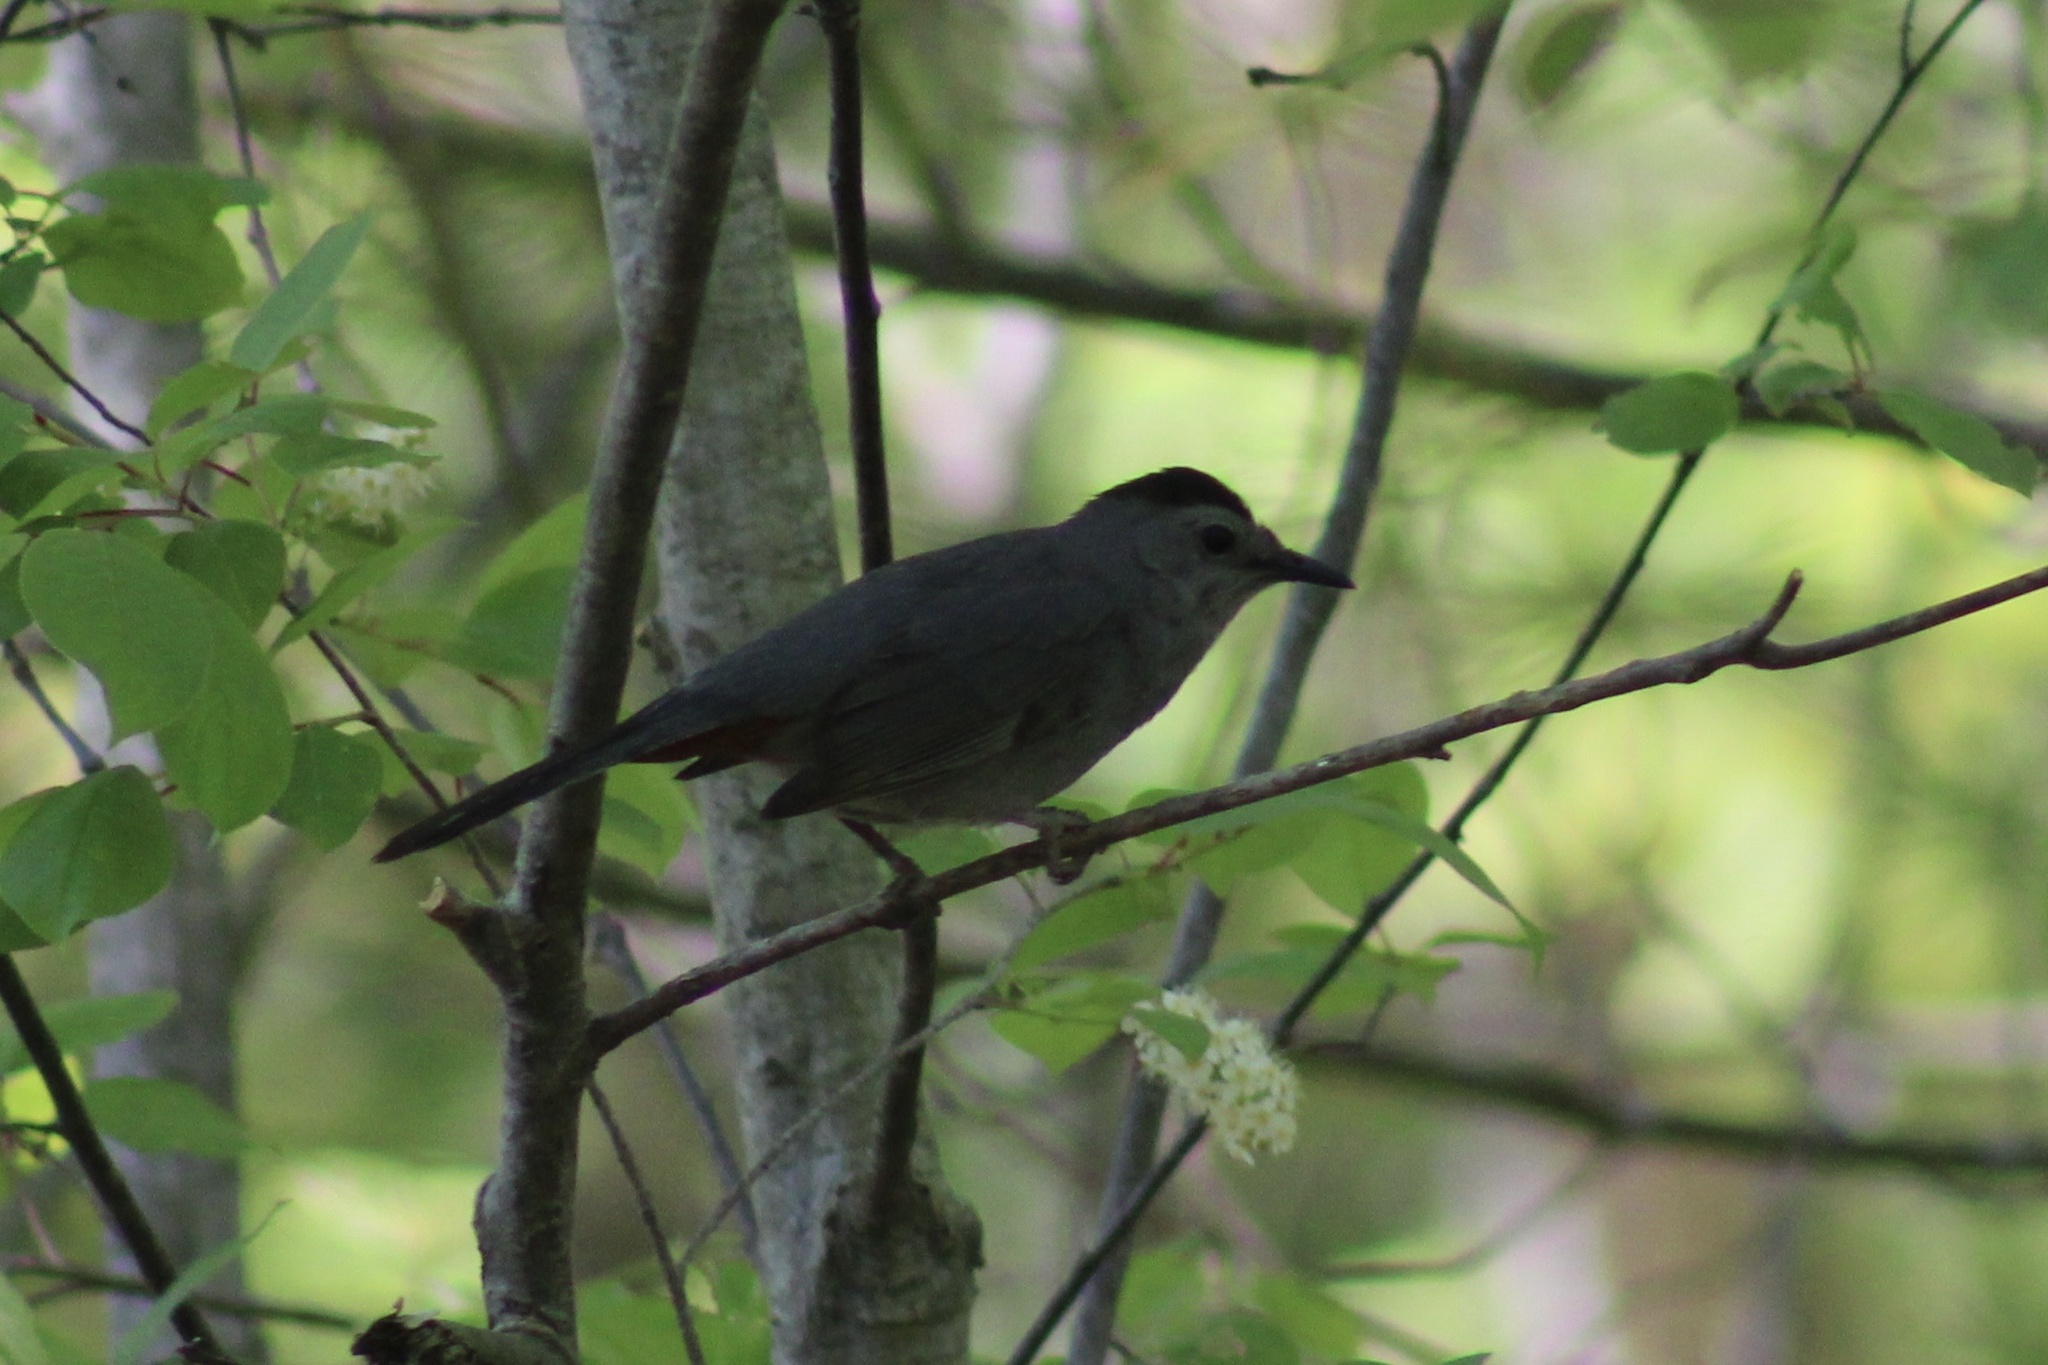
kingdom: Animalia
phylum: Chordata
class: Aves
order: Passeriformes
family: Mimidae
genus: Dumetella
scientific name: Dumetella carolinensis
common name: Gray catbird
